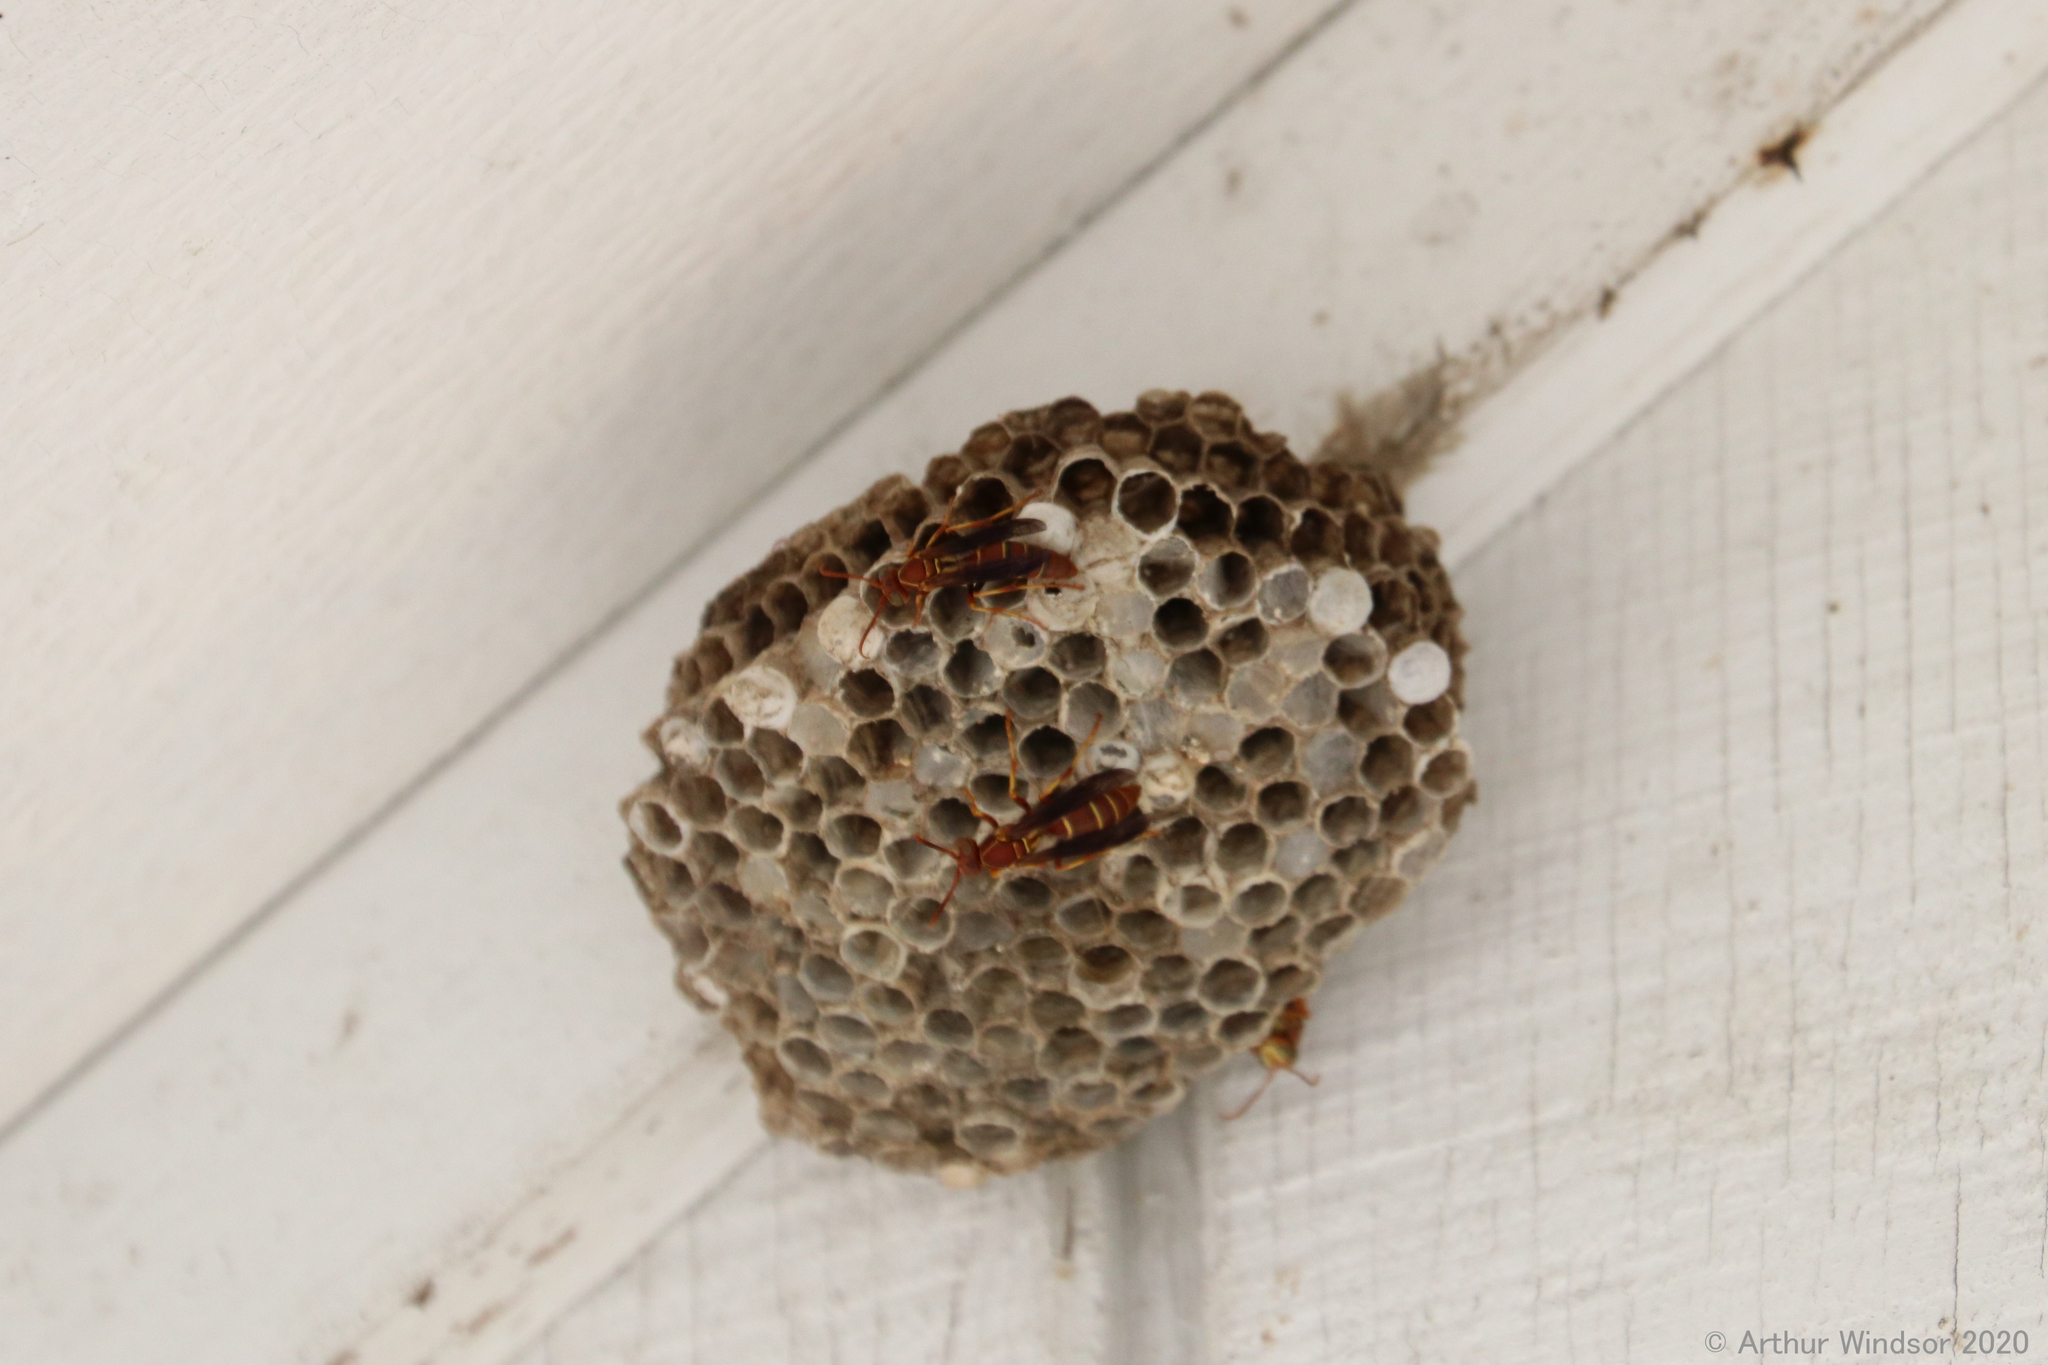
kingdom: Animalia
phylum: Arthropoda
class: Insecta
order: Hymenoptera
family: Eumenidae
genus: Polistes
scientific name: Polistes bellicosus
